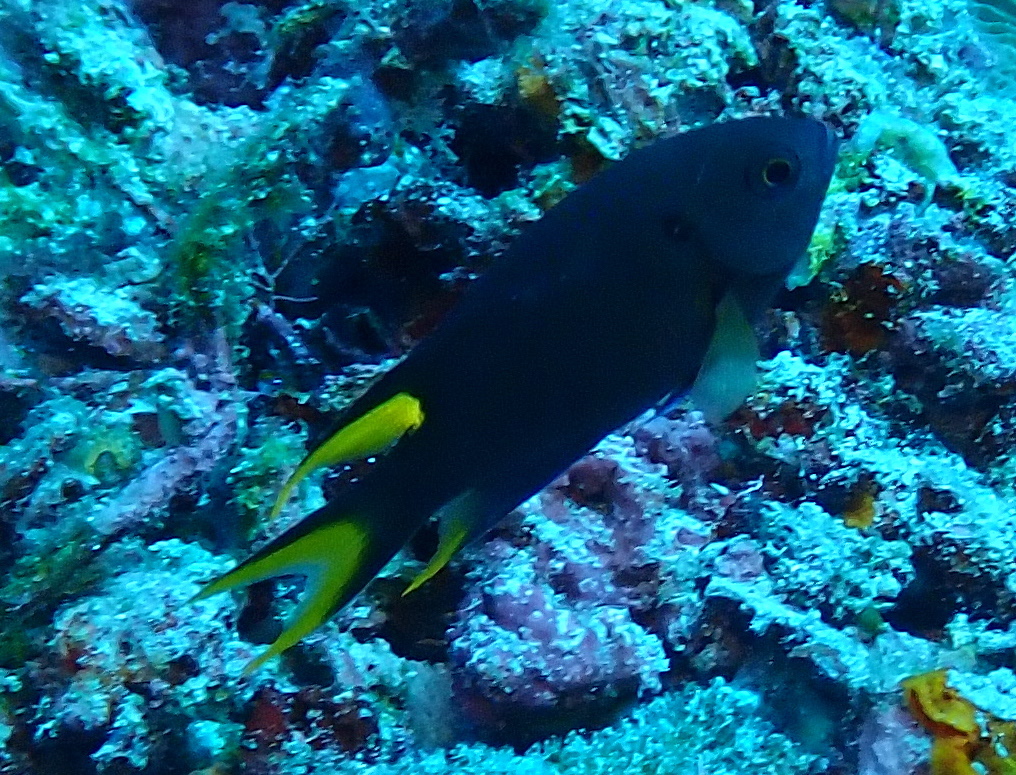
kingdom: Animalia
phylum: Chordata
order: Perciformes
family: Pomacentridae
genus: Neopomacentrus
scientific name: Neopomacentrus cyanomos
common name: Regal demoiselle
